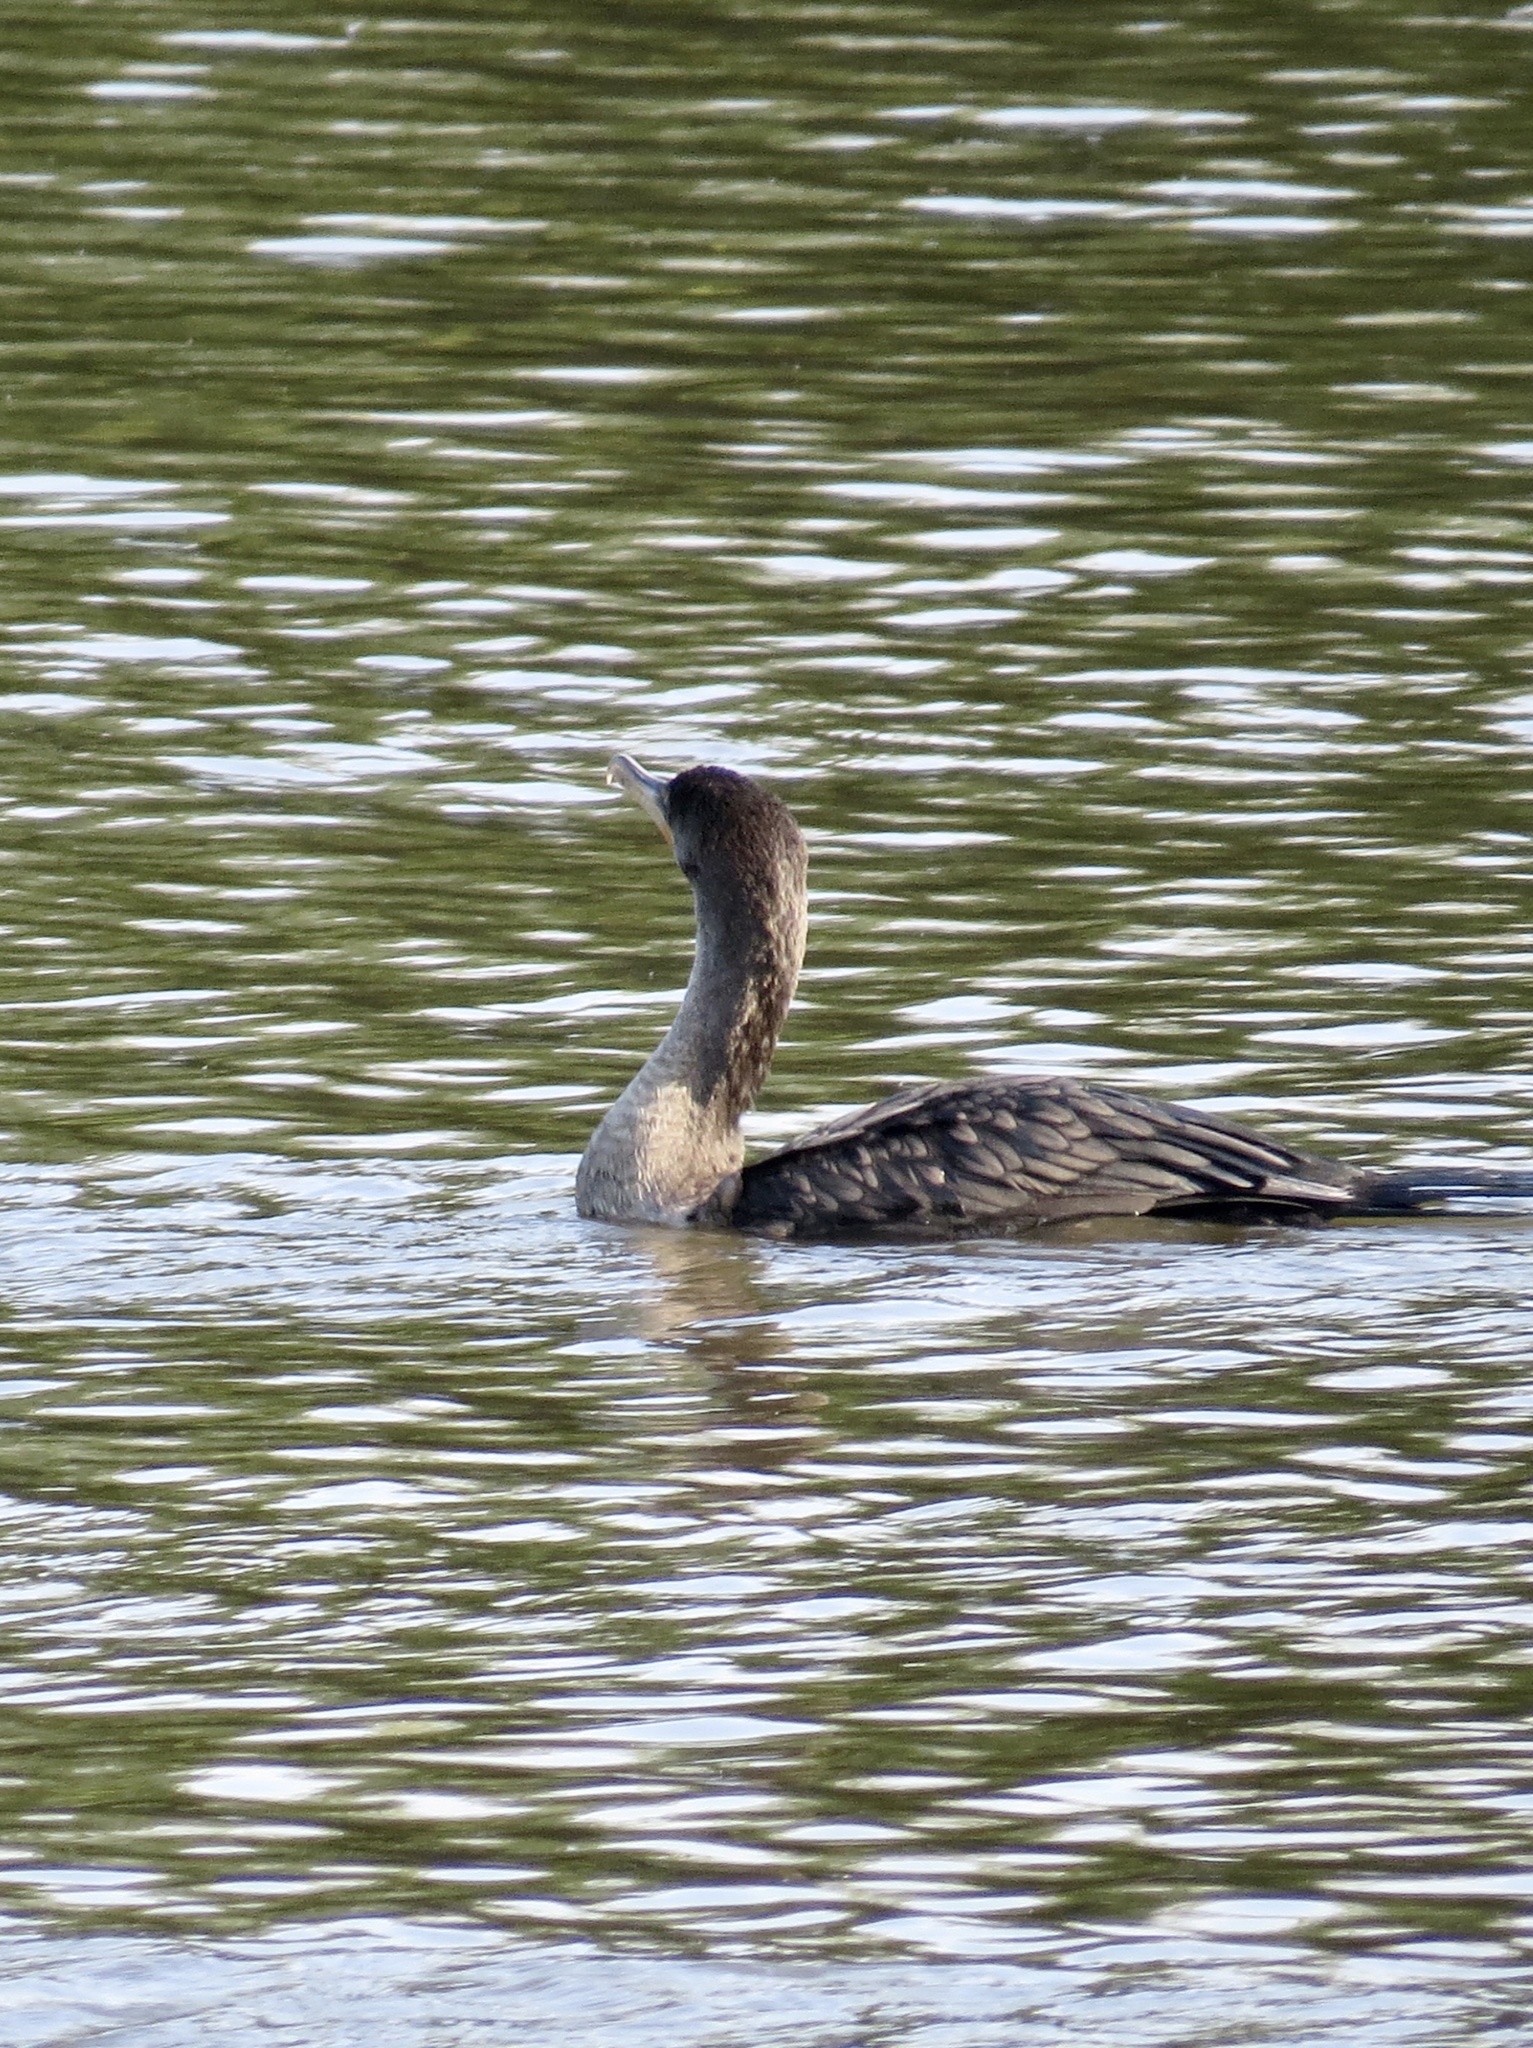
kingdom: Animalia
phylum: Chordata
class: Aves
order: Suliformes
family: Phalacrocoracidae
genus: Phalacrocorax
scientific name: Phalacrocorax auritus
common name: Double-crested cormorant
